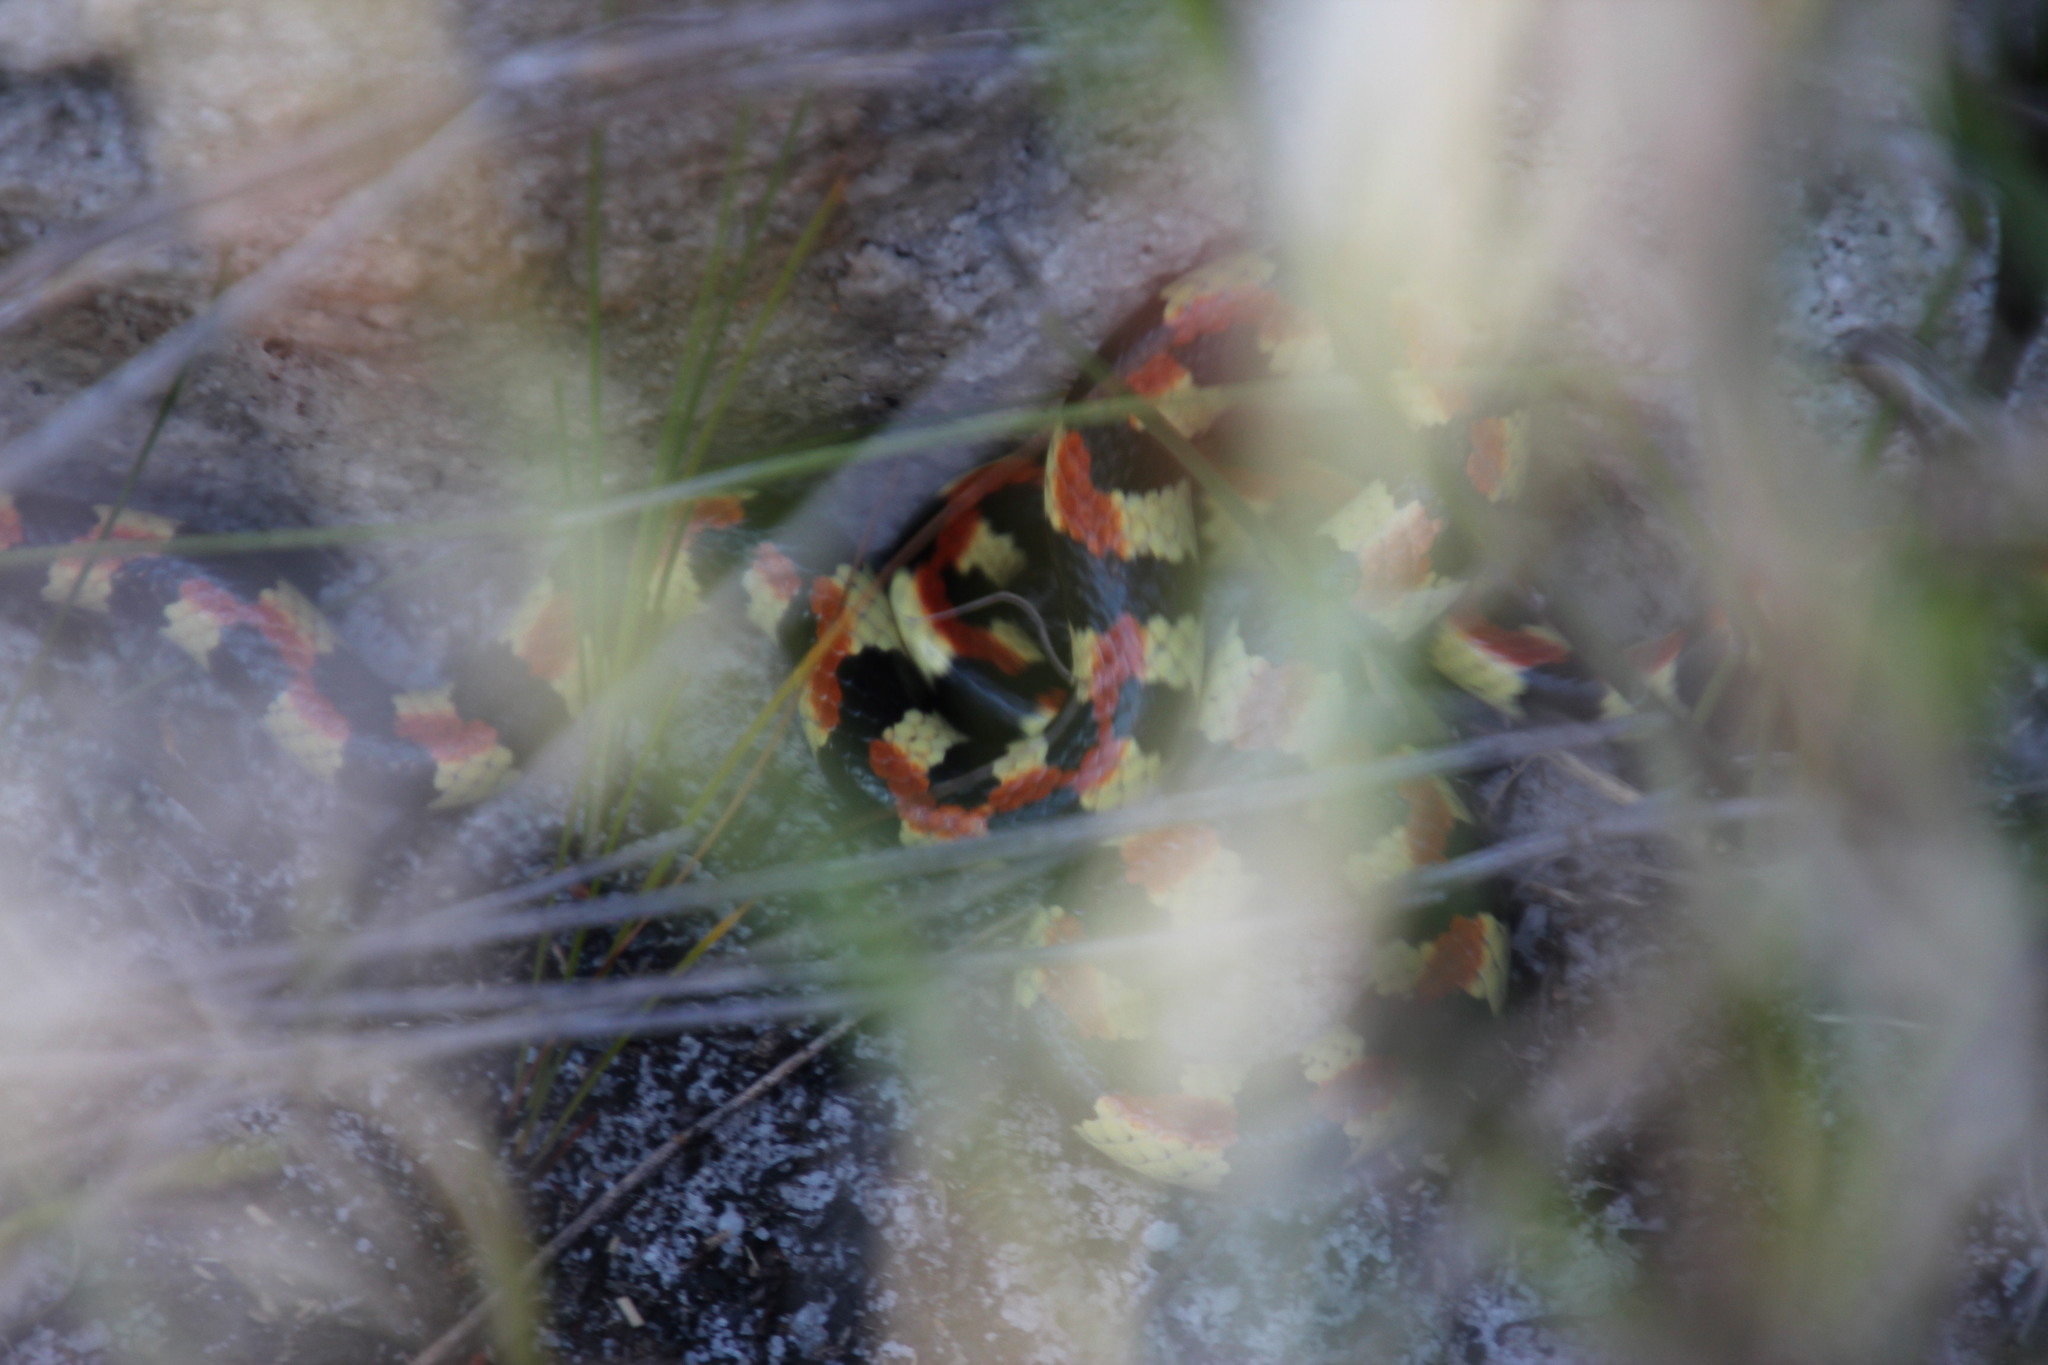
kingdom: Animalia
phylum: Chordata
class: Squamata
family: Atractaspididae
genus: Homoroselaps
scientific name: Homoroselaps lacteus
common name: Spotted harlequin snake
